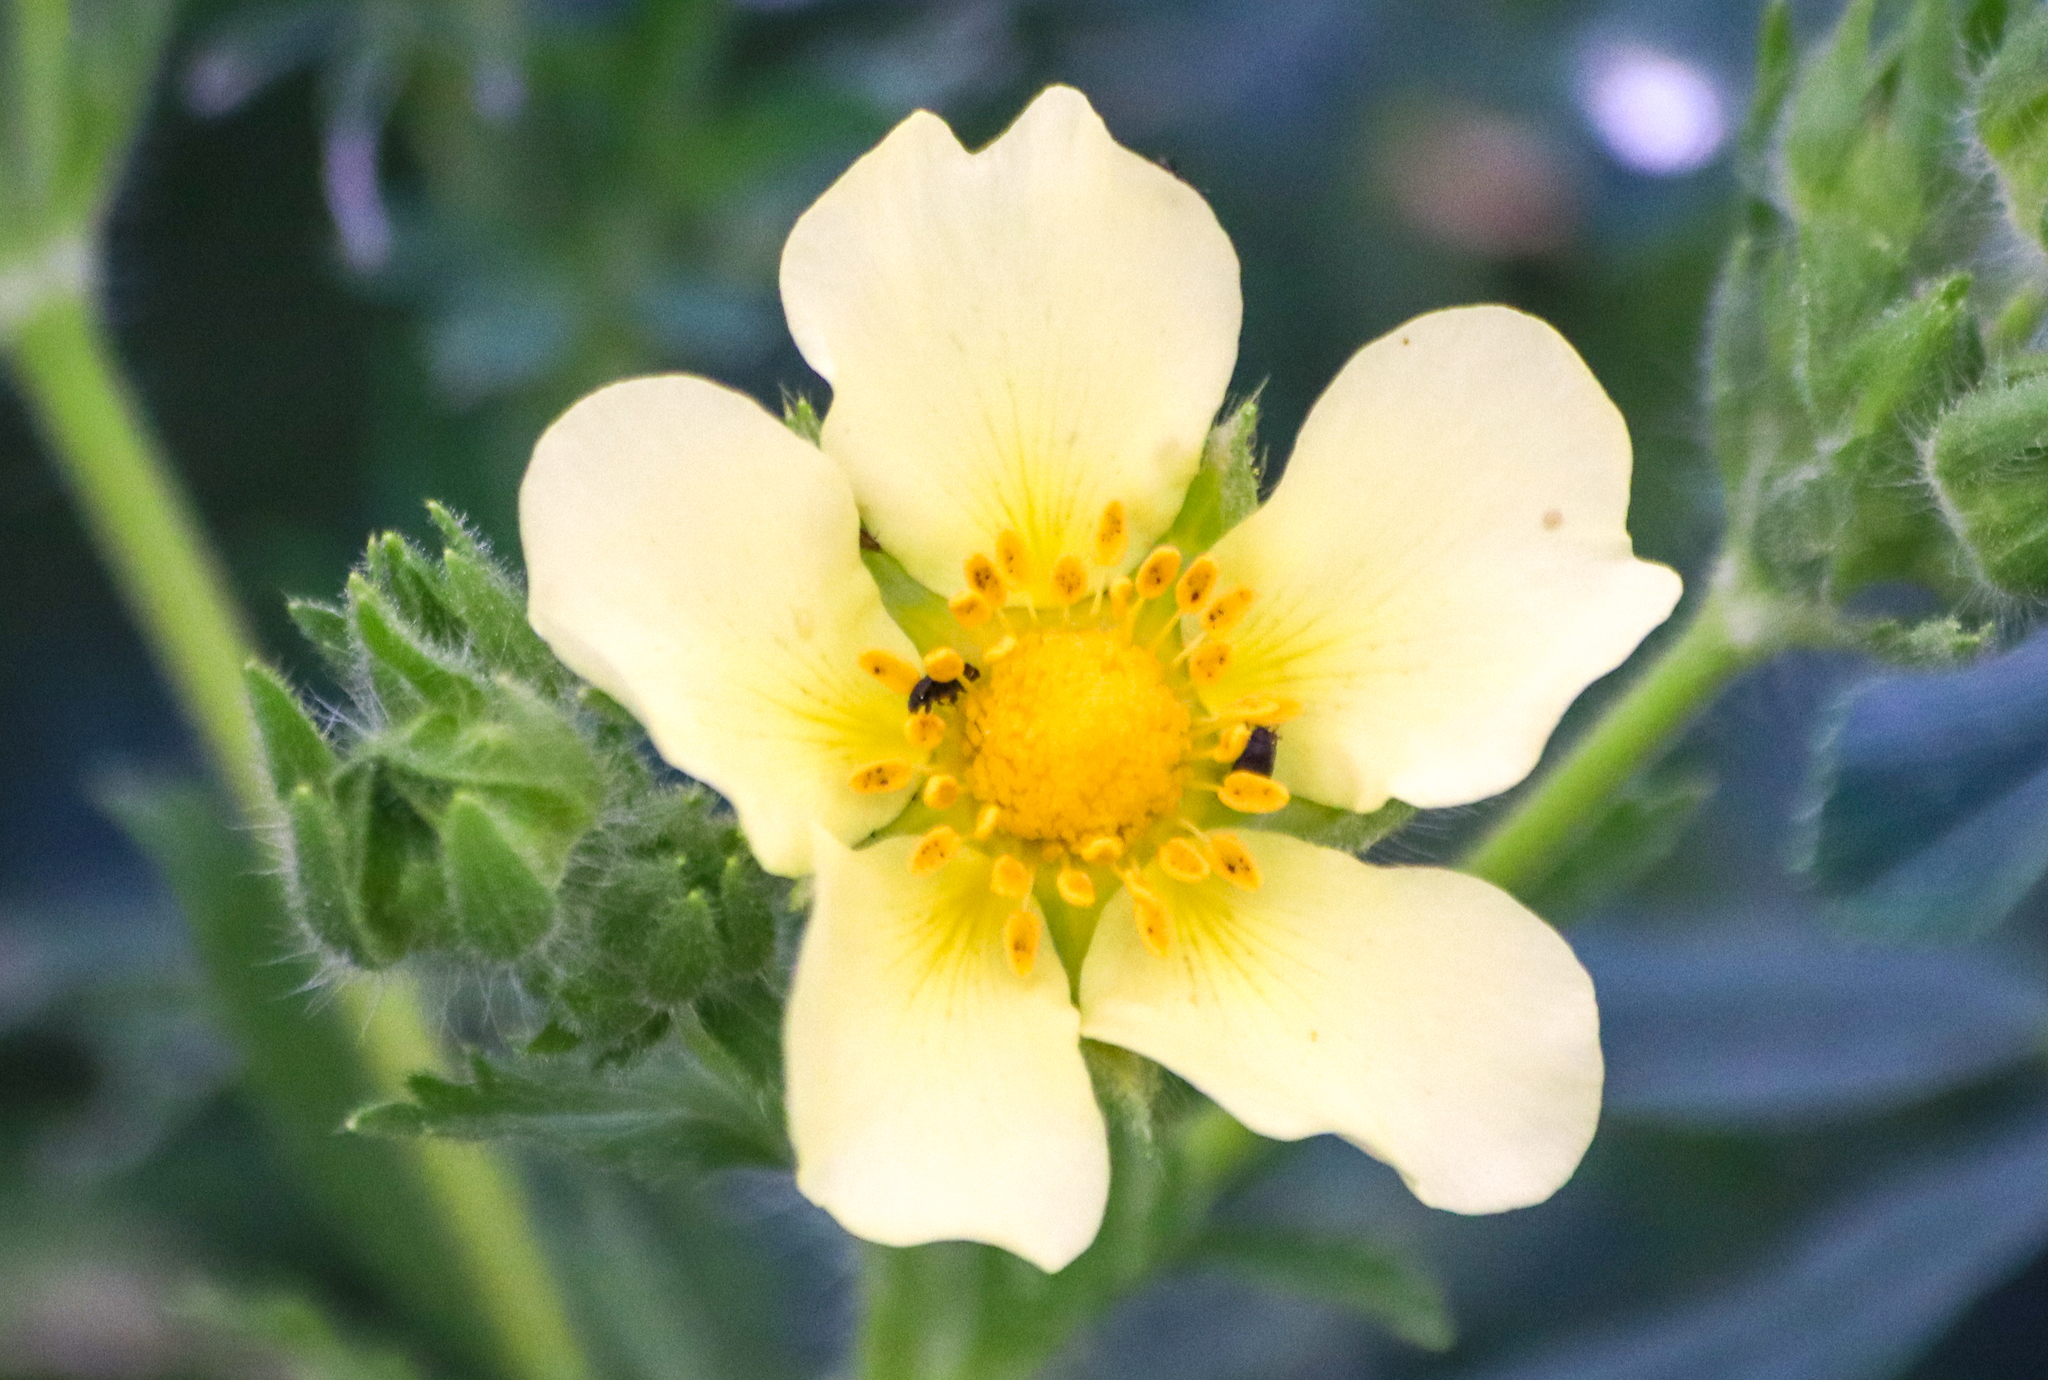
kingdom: Plantae
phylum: Tracheophyta
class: Magnoliopsida
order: Rosales
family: Rosaceae
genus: Potentilla
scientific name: Potentilla recta
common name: Sulphur cinquefoil
